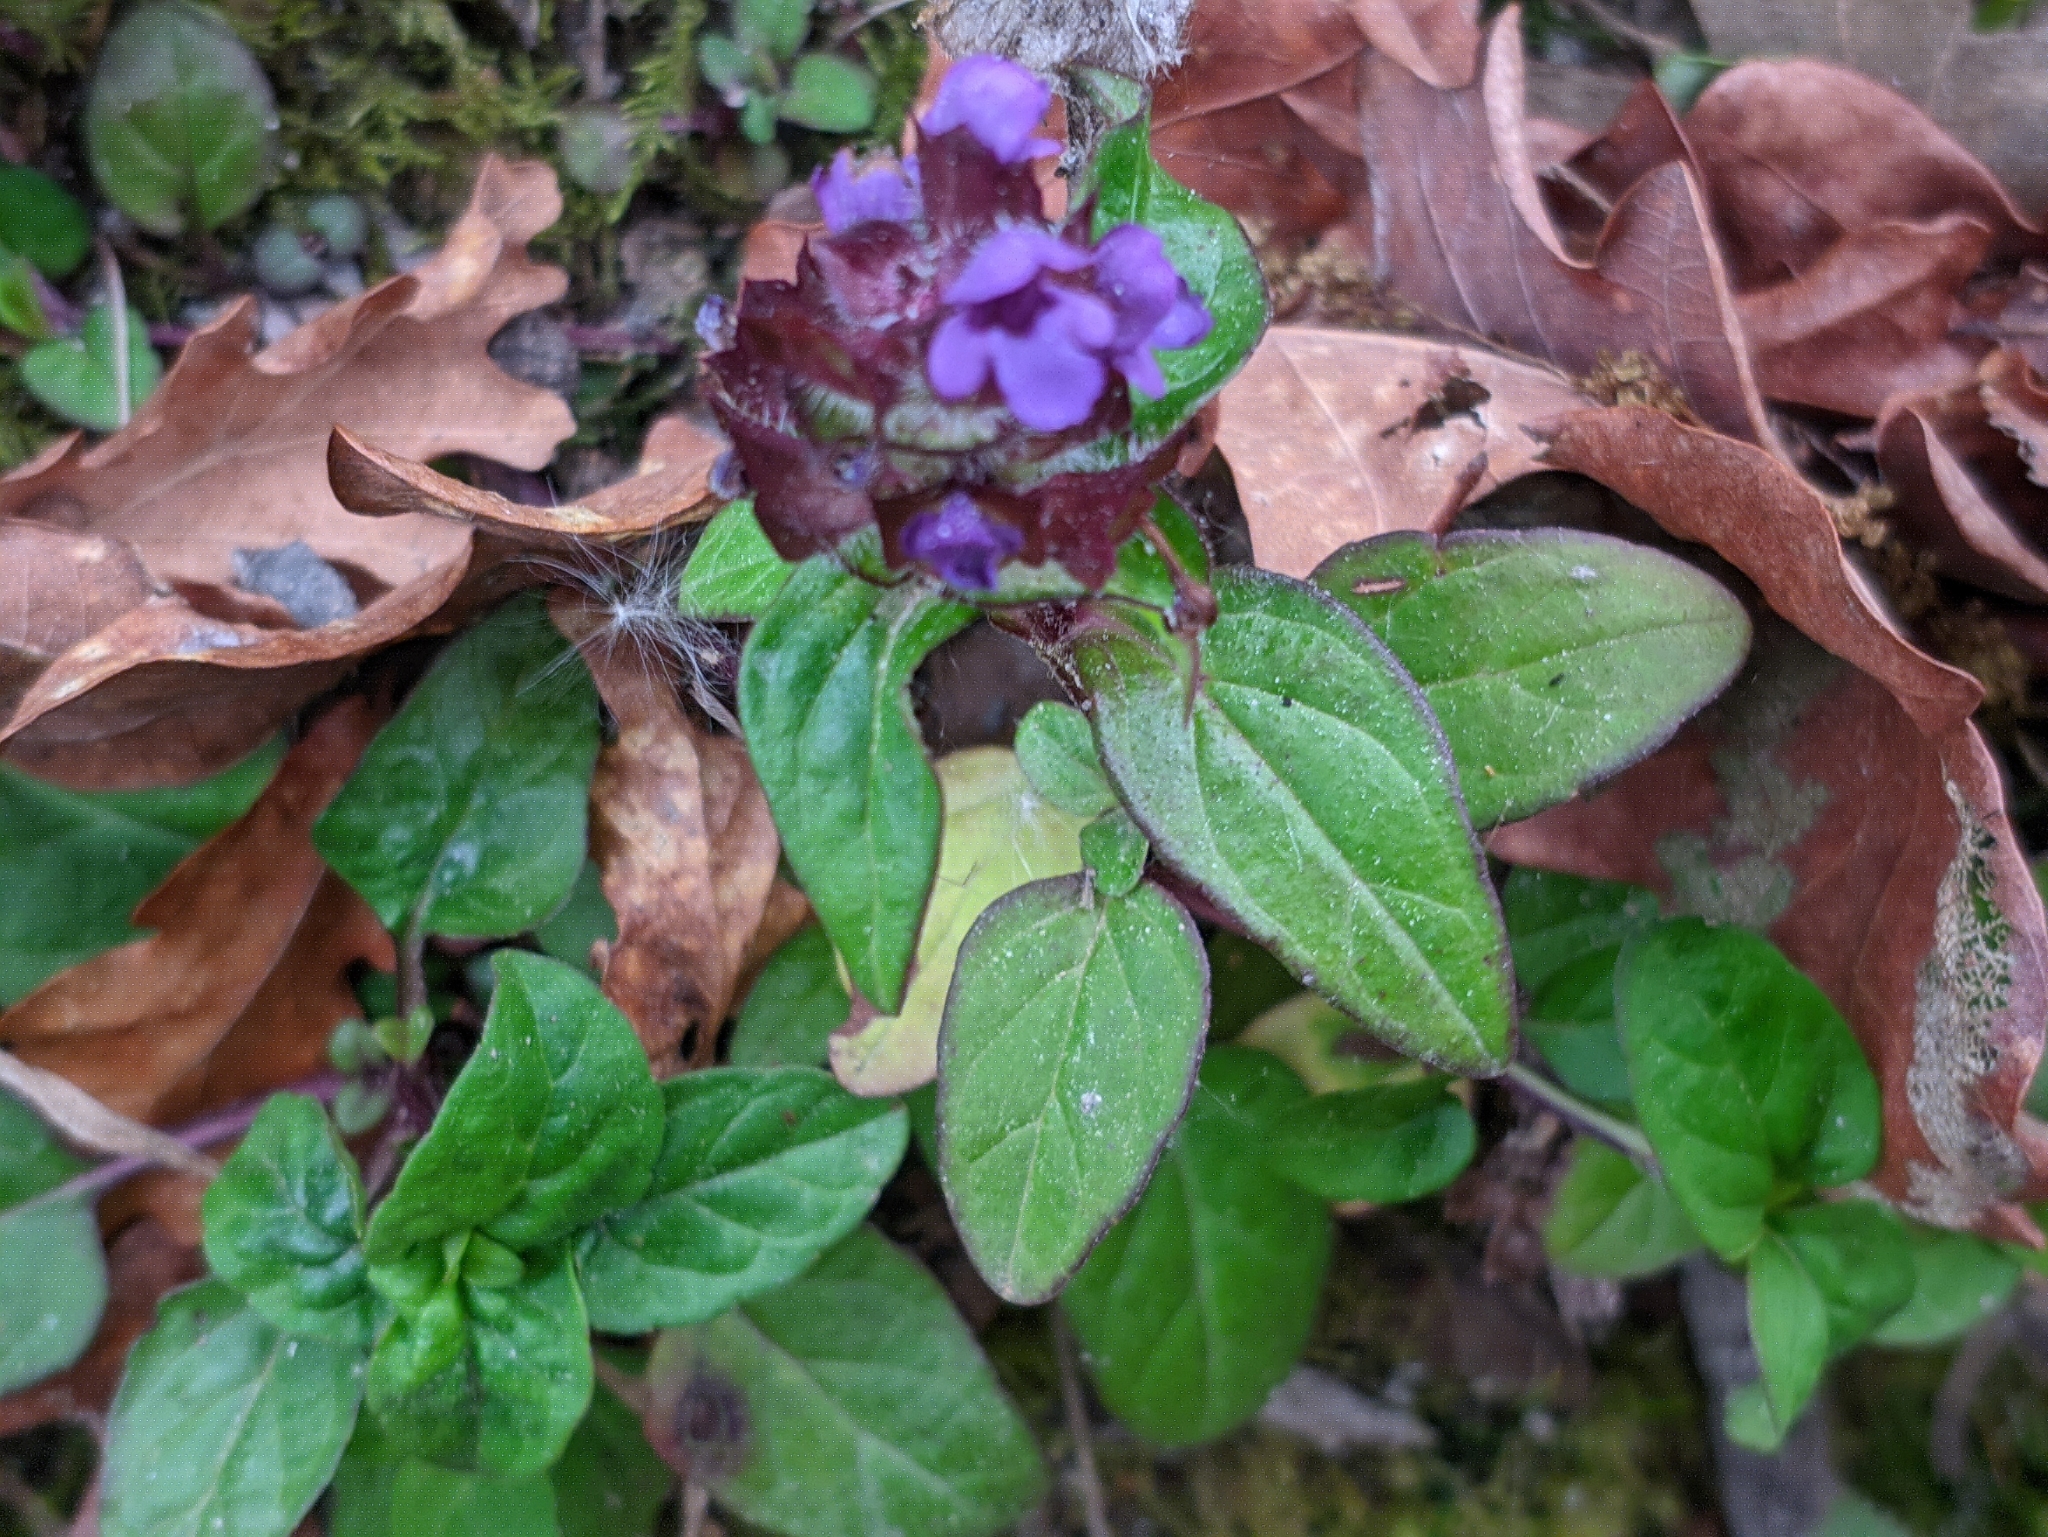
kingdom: Plantae
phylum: Tracheophyta
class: Magnoliopsida
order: Lamiales
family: Lamiaceae
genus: Prunella
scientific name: Prunella vulgaris
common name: Heal-all
